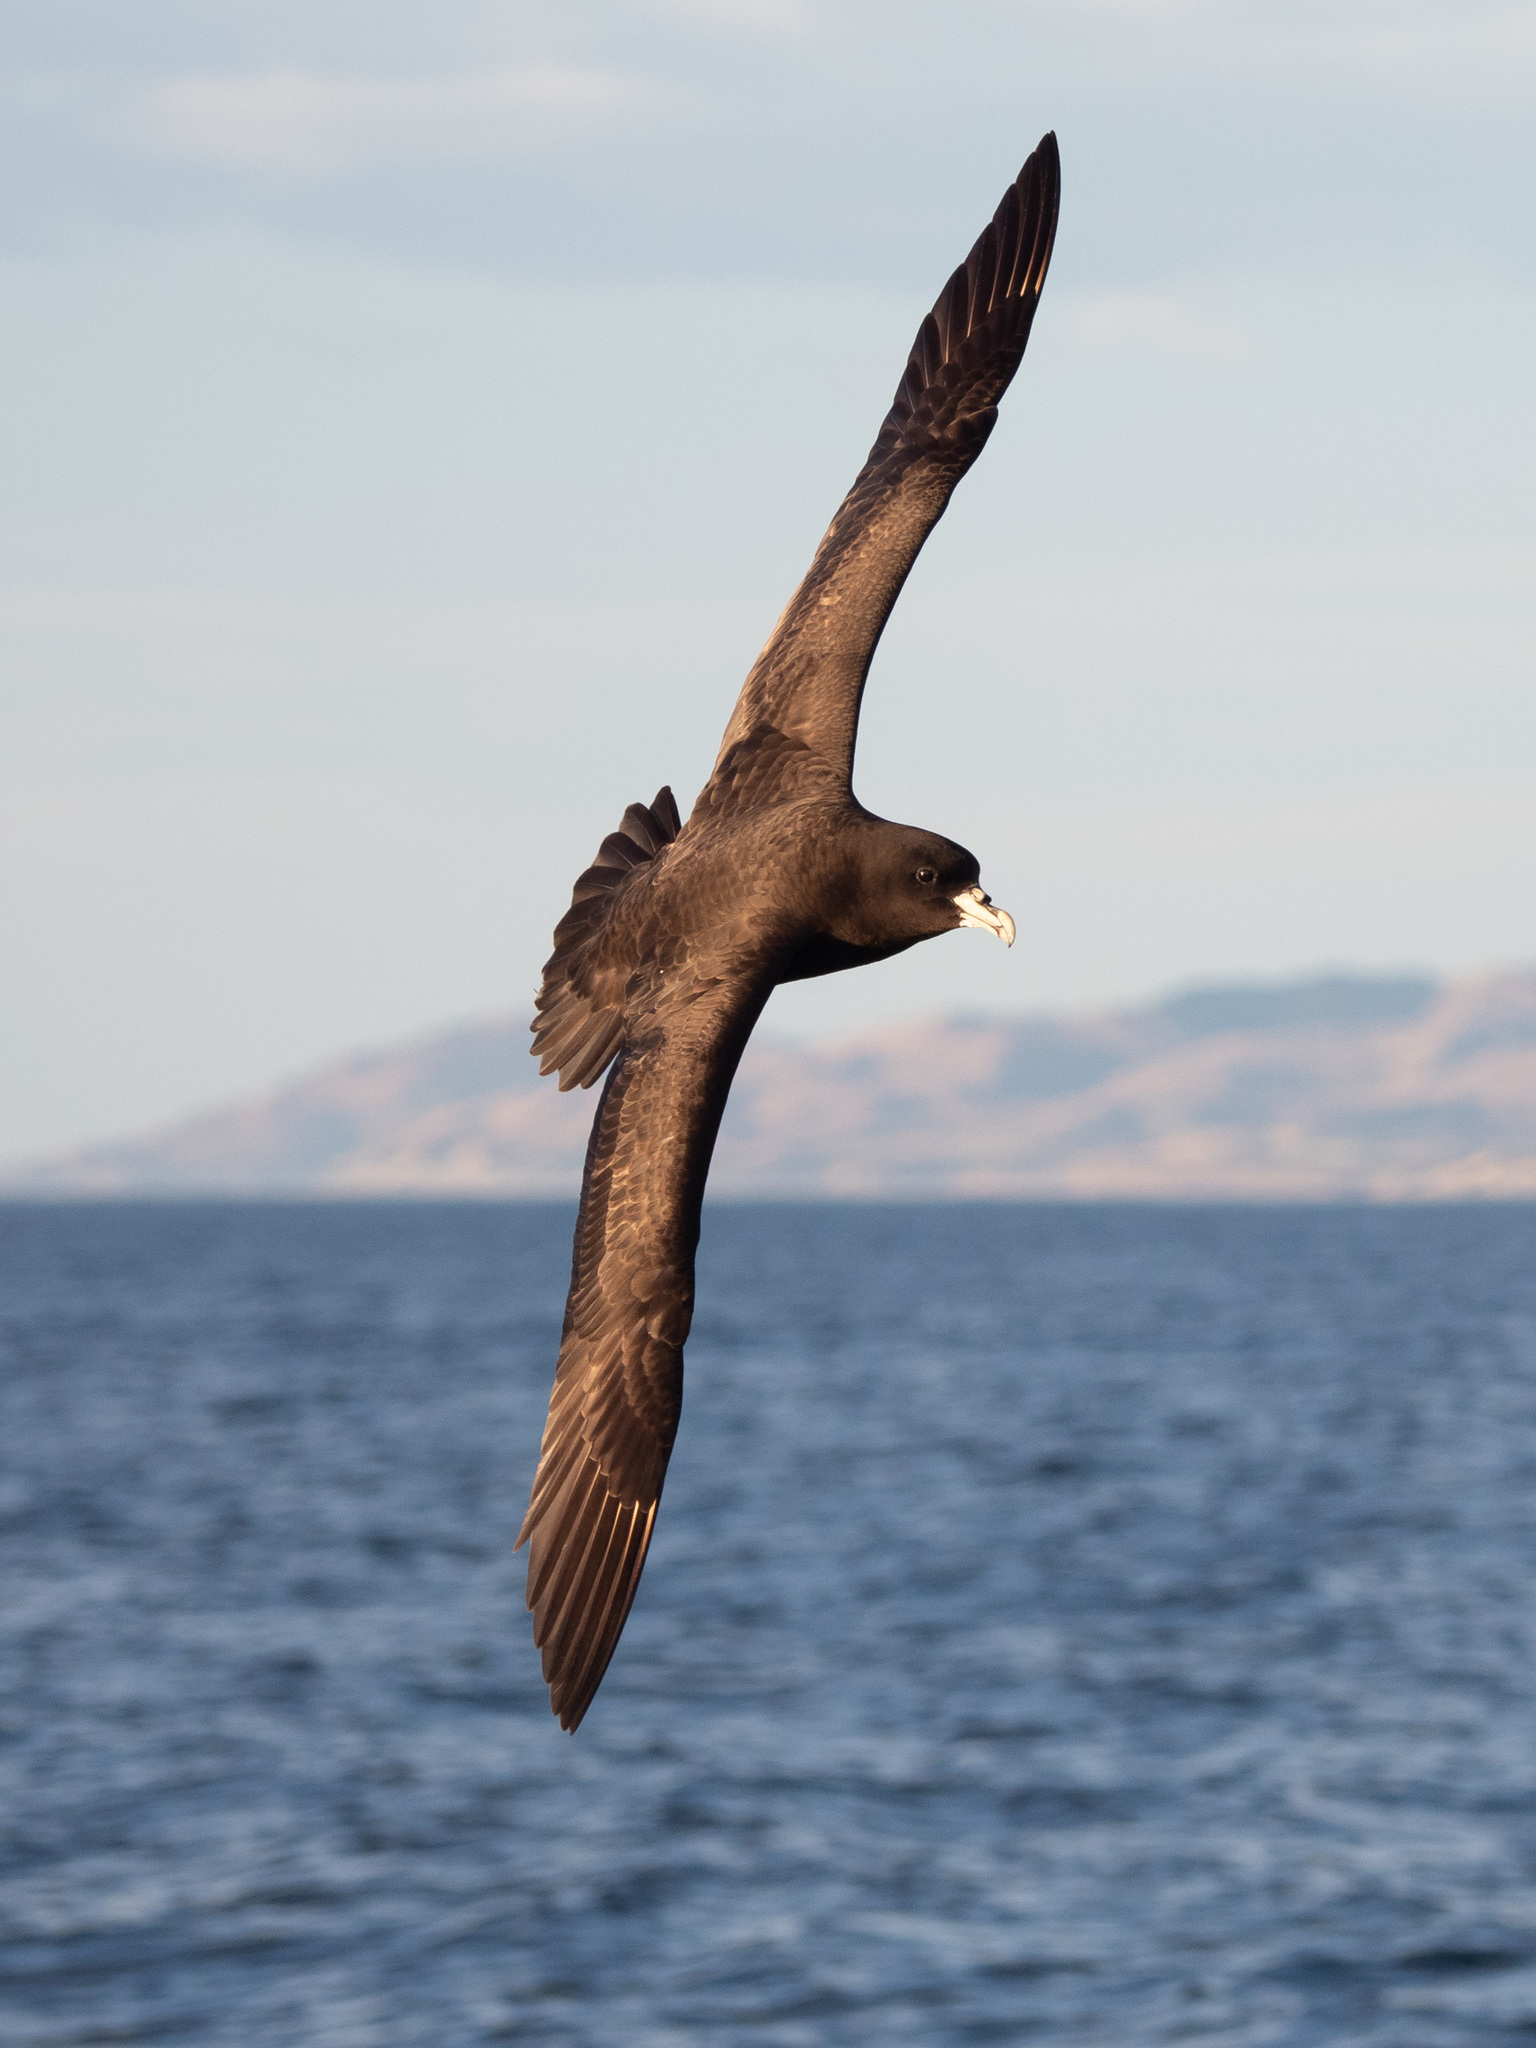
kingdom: Animalia
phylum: Chordata
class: Aves
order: Procellariiformes
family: Procellariidae
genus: Procellaria
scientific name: Procellaria aequinoctialis
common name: White-chinned petrel
